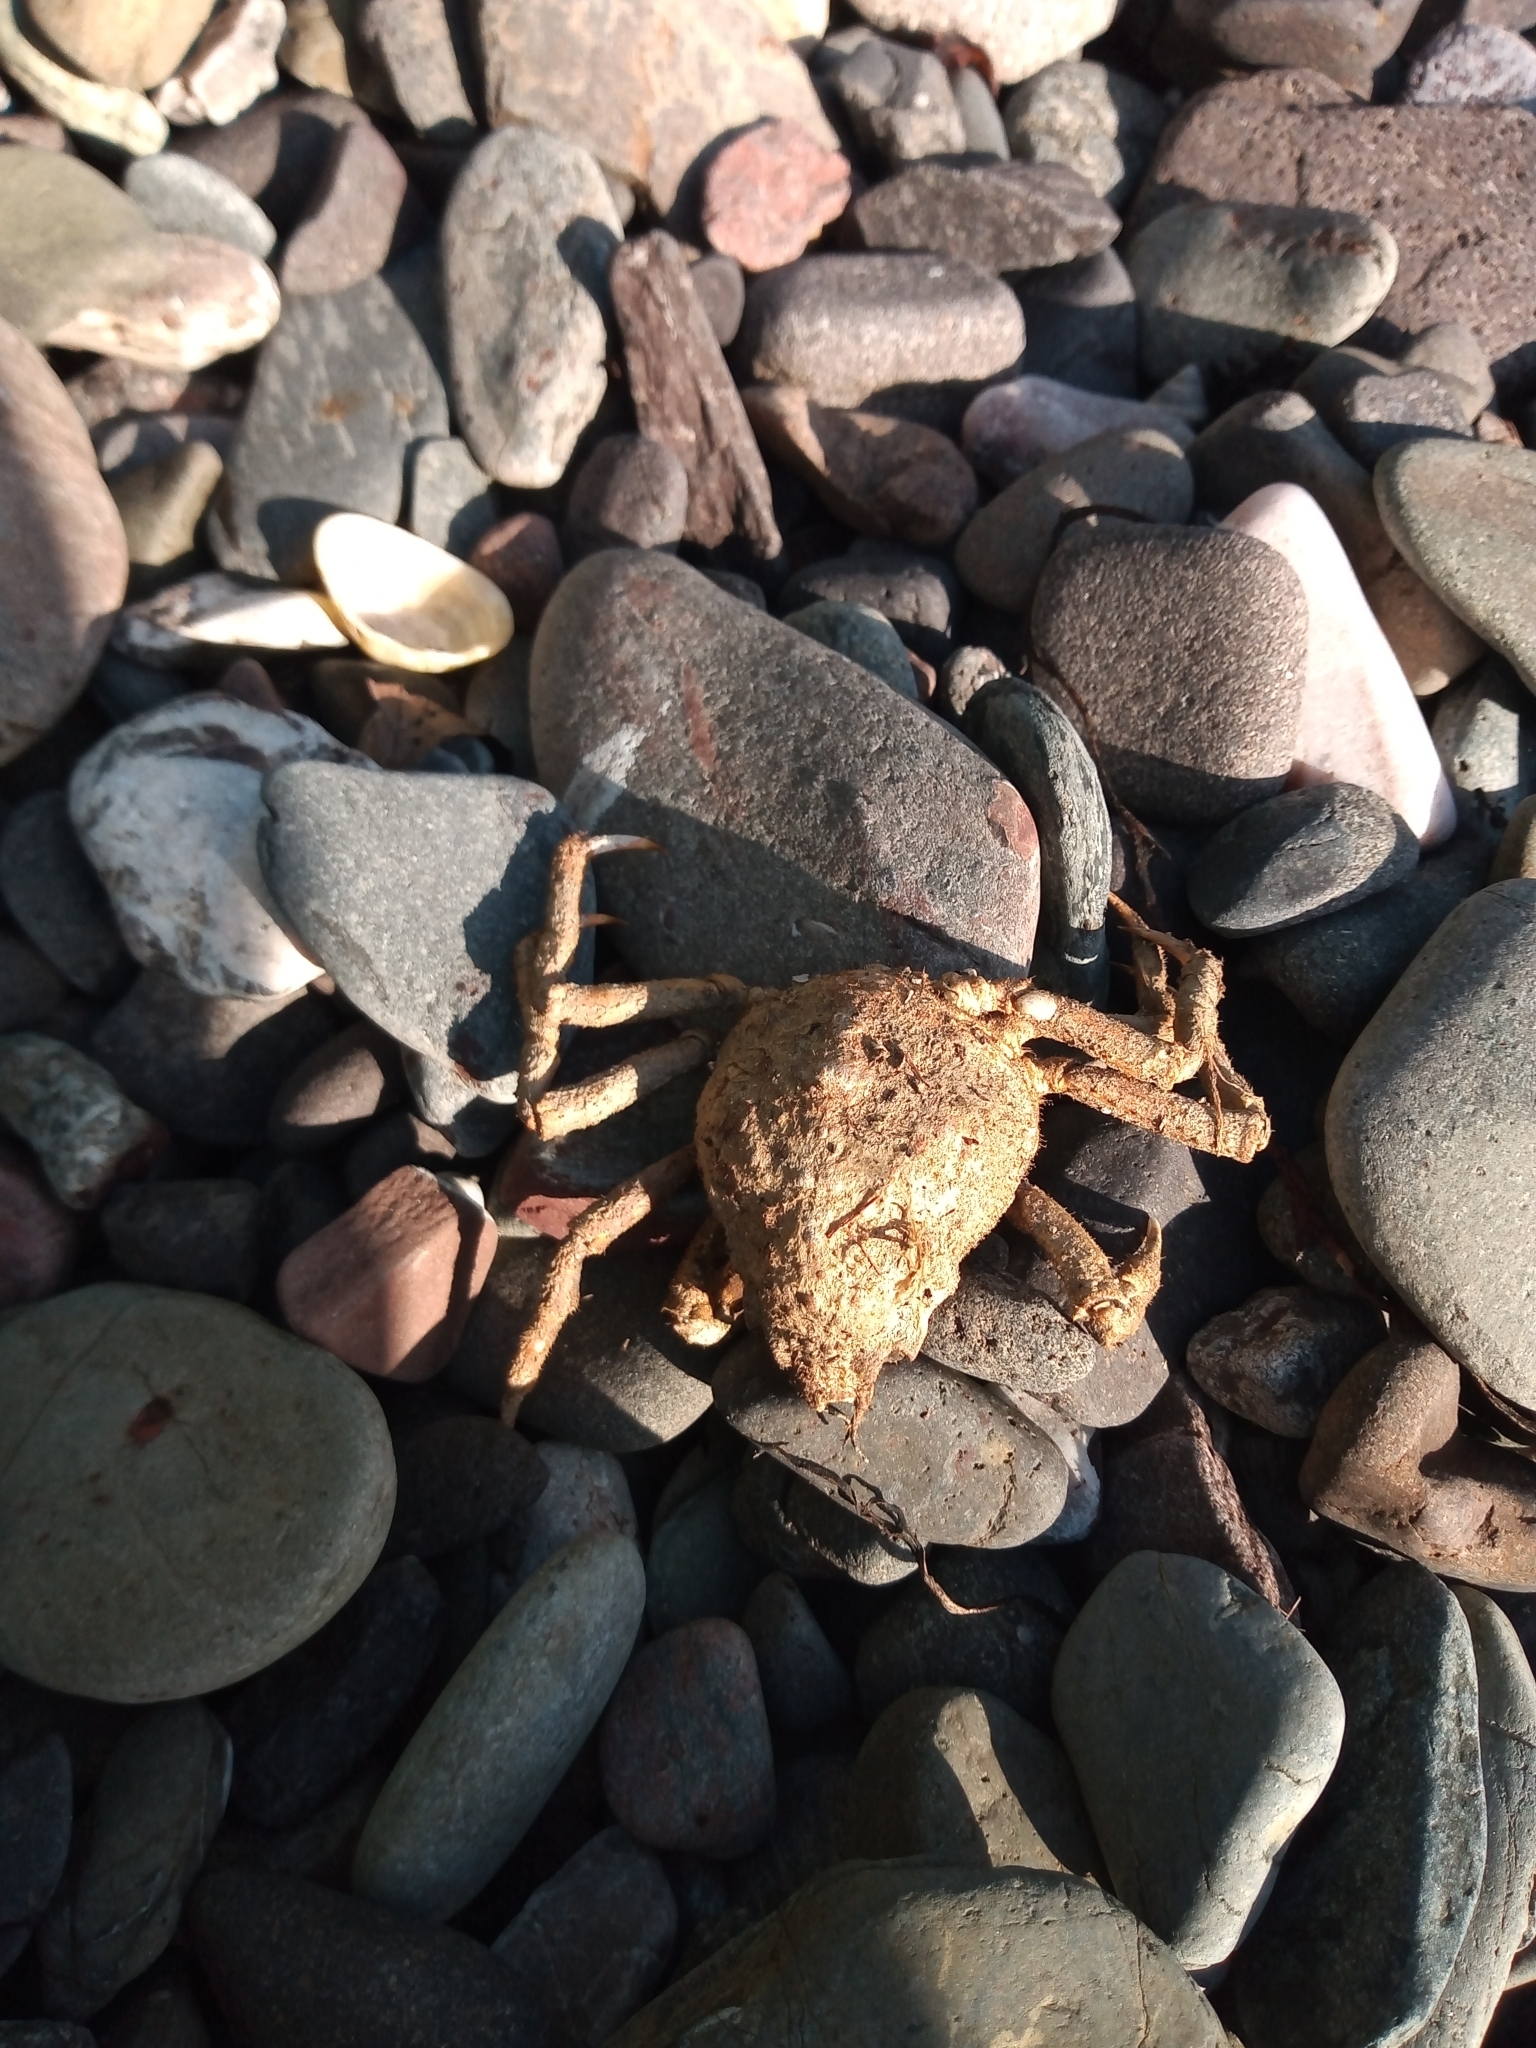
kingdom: Animalia
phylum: Arthropoda
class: Malacostraca
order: Decapoda
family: Oregoniidae
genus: Hyas
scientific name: Hyas araneus
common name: Great spider crab
